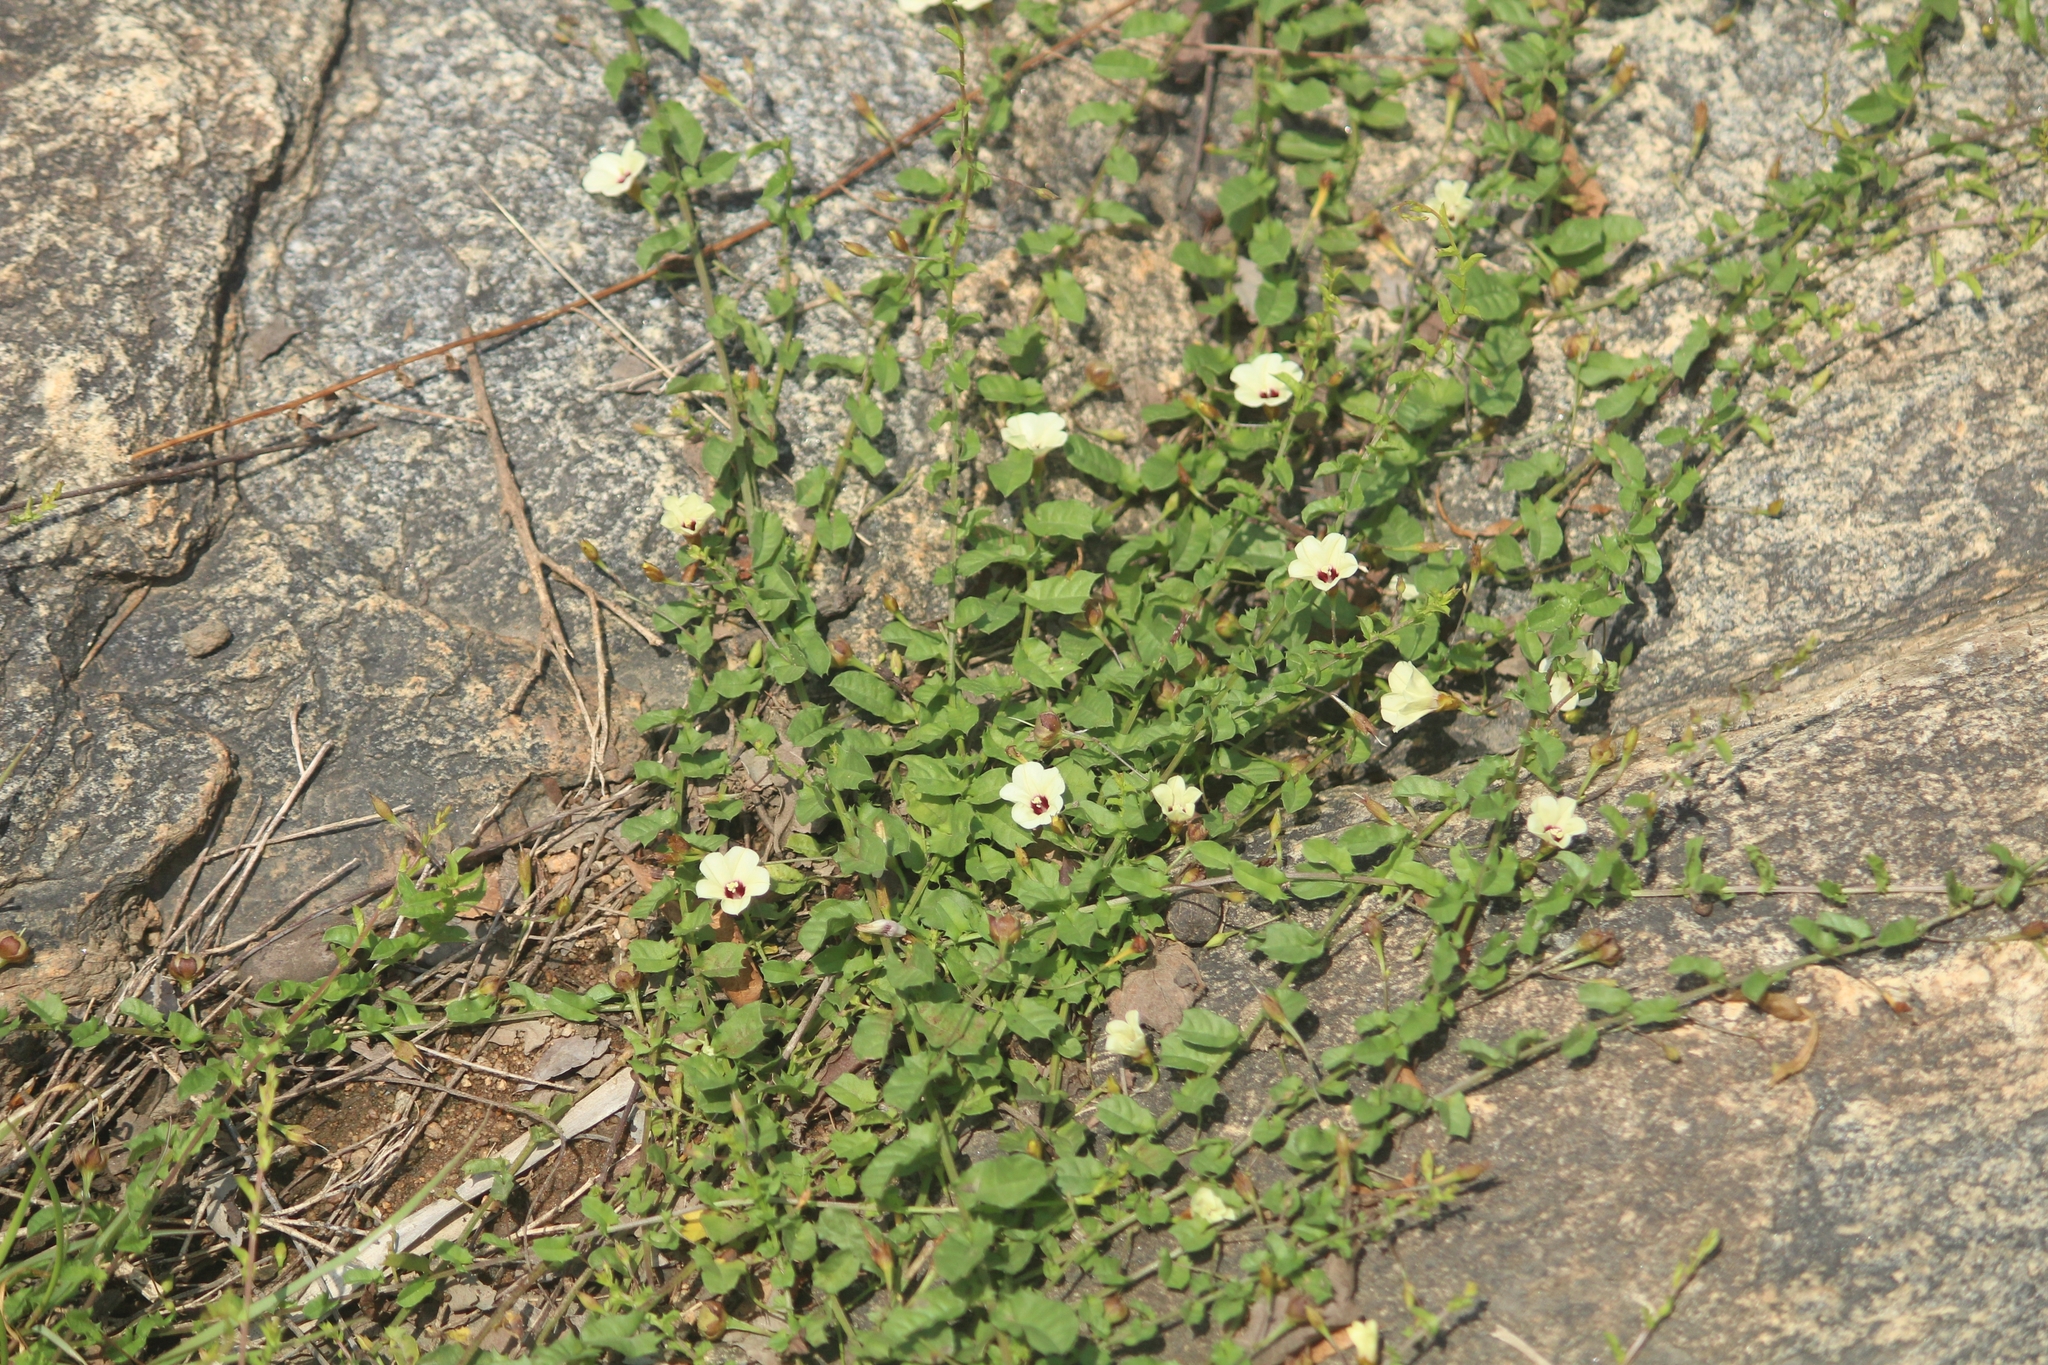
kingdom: Plantae
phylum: Tracheophyta
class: Magnoliopsida
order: Solanales
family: Convolvulaceae
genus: Xenostegia
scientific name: Xenostegia tridentata
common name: African morningvine
